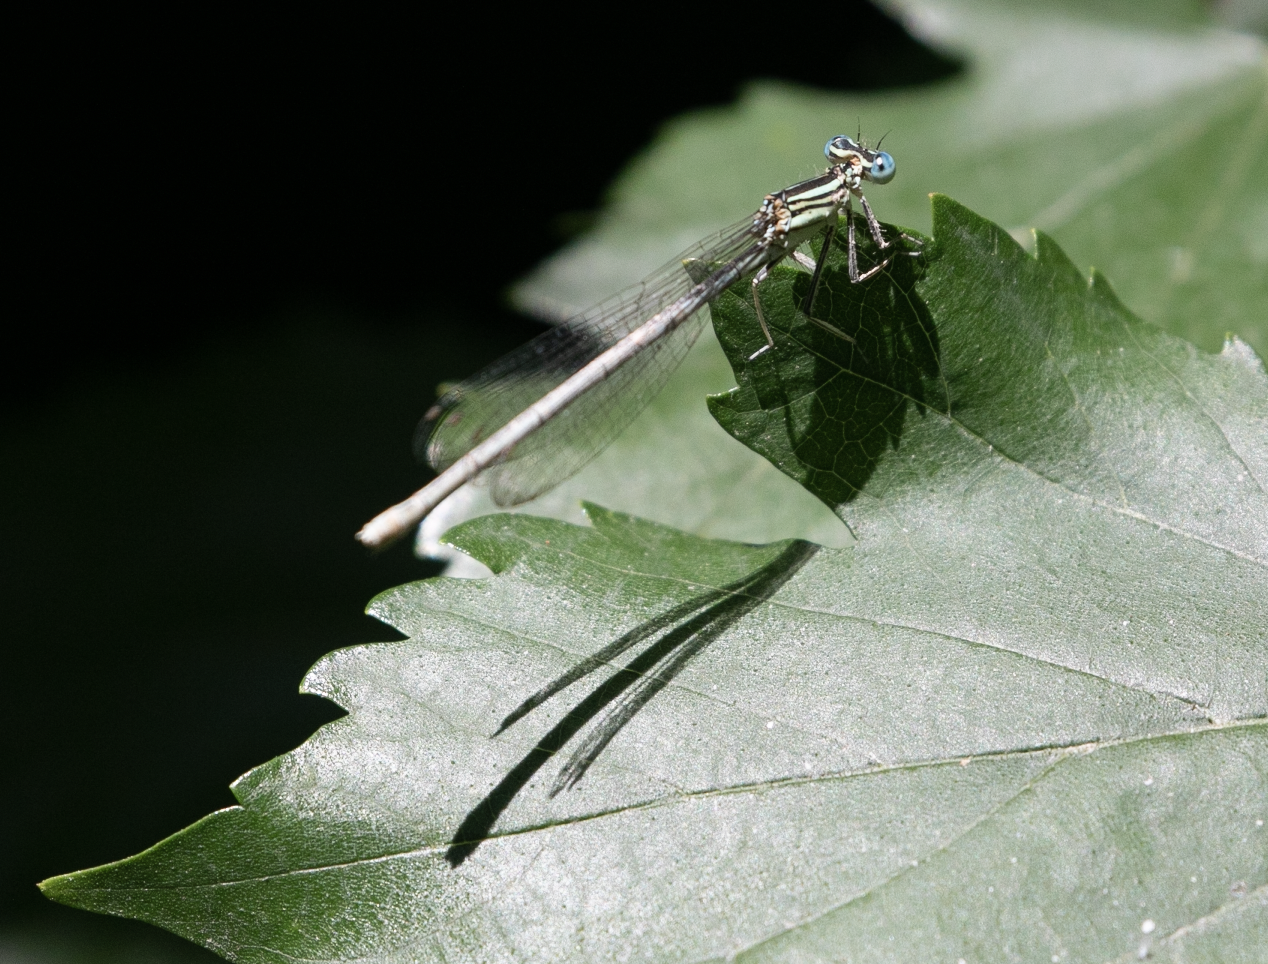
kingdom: Animalia
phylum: Arthropoda
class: Insecta
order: Odonata
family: Platycnemididae
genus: Platycnemis
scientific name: Platycnemis pennipes
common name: White-legged damselfly
